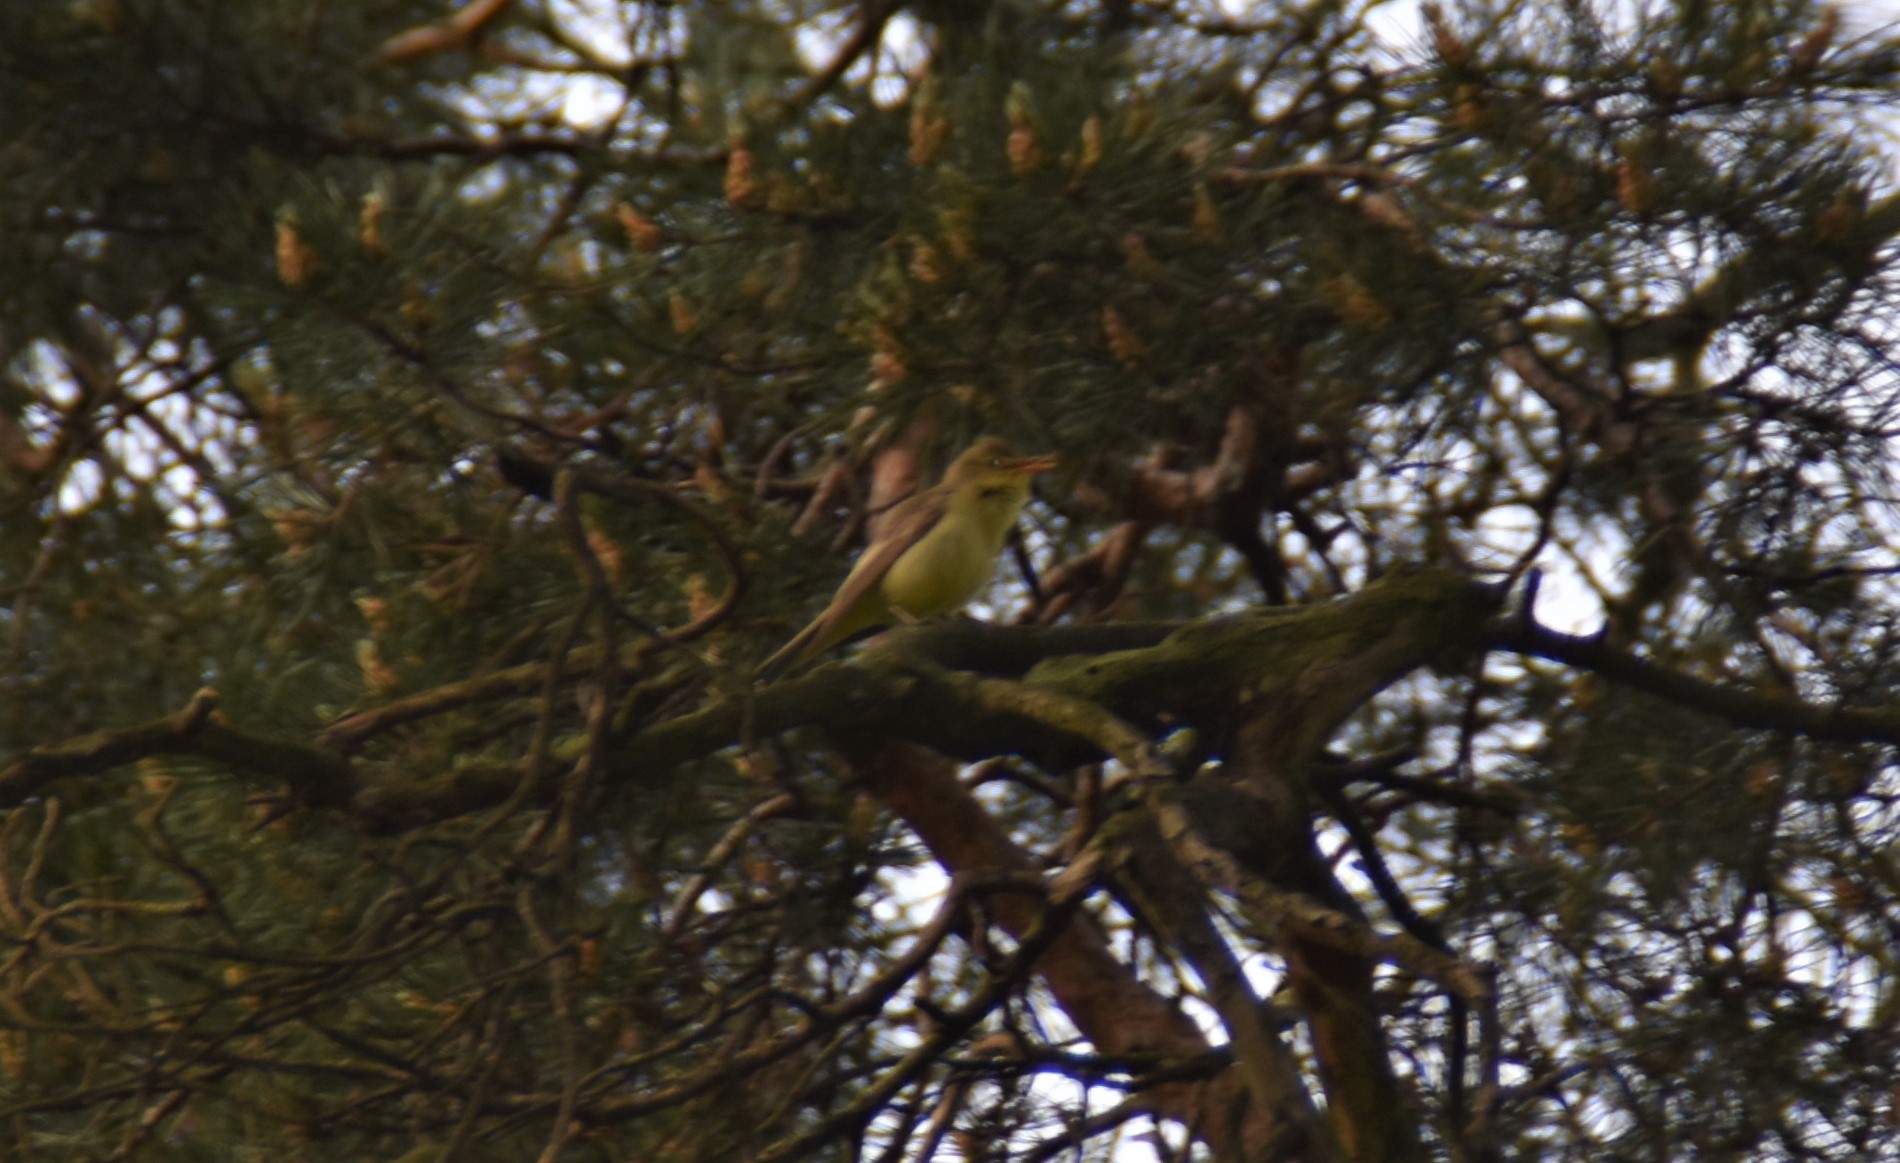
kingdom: Animalia
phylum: Chordata
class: Aves
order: Passeriformes
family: Acrocephalidae
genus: Hippolais
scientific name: Hippolais icterina
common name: Icterine warbler
